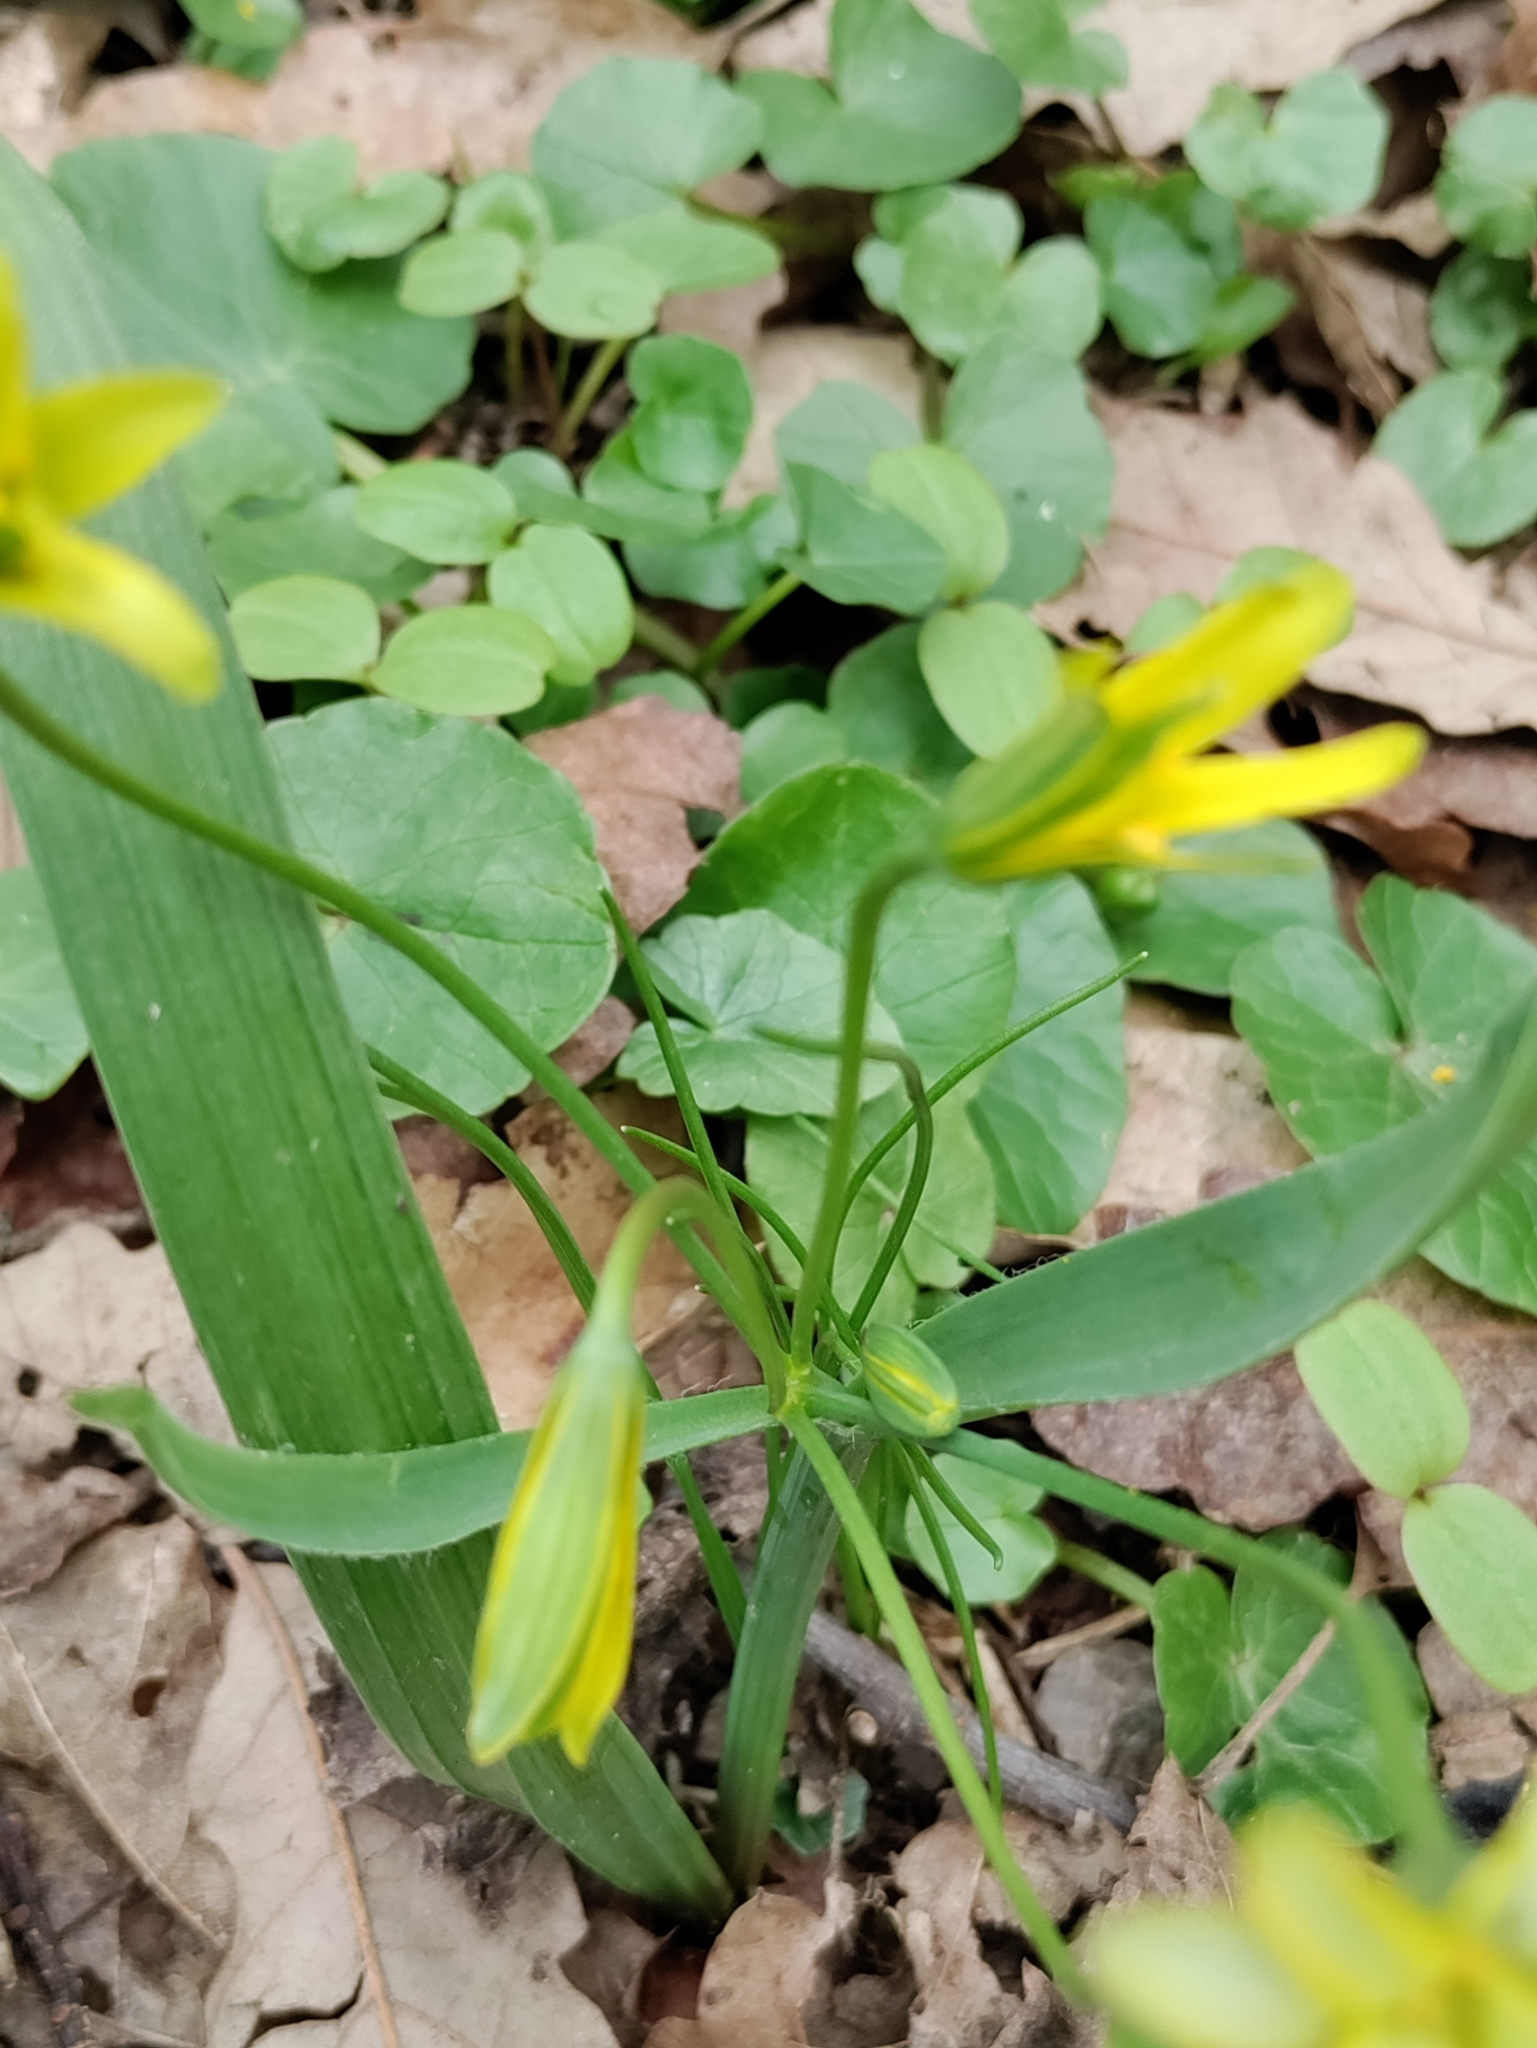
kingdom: Plantae
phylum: Tracheophyta
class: Liliopsida
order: Liliales
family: Liliaceae
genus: Gagea
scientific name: Gagea lutea
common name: Yellow star-of-bethlehem
